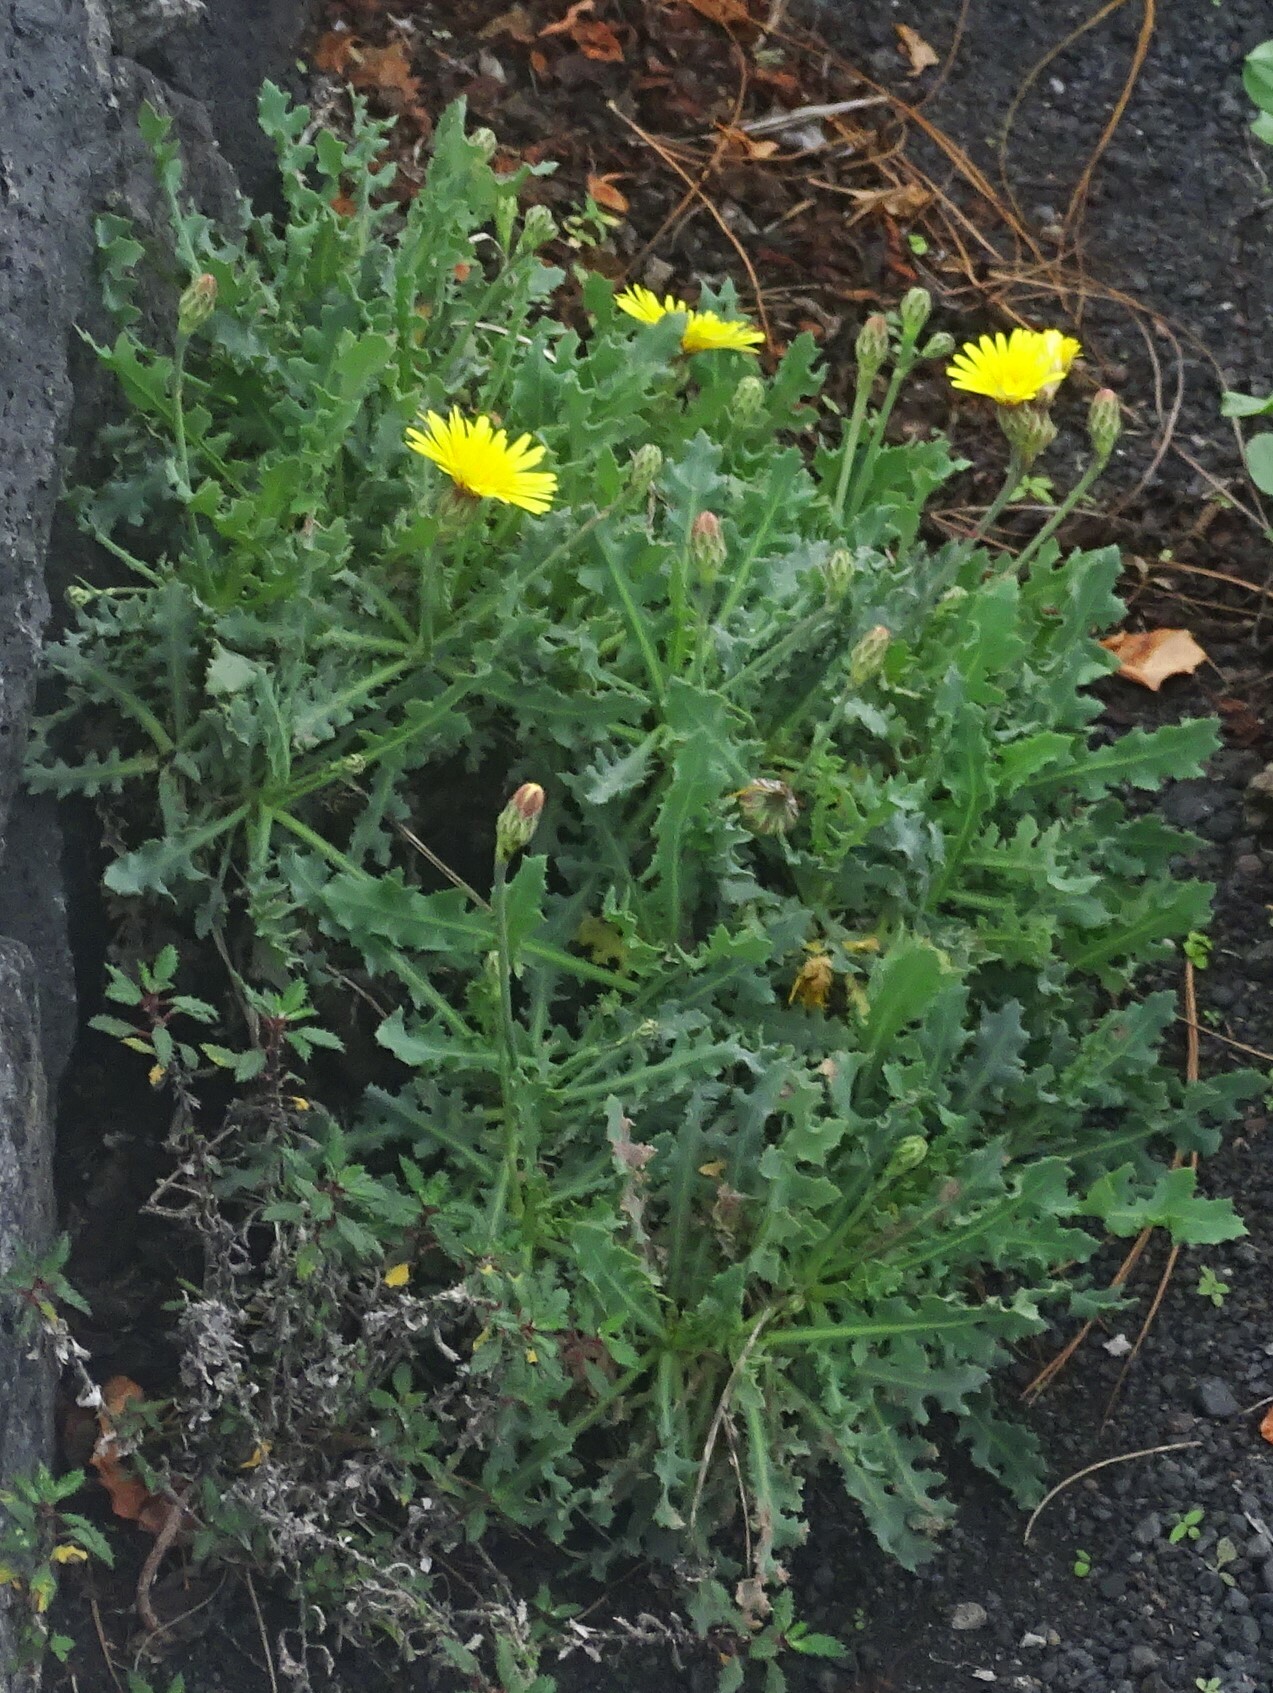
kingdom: Plantae
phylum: Tracheophyta
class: Magnoliopsida
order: Asterales
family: Asteraceae
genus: Reichardia
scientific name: Reichardia ligulata
